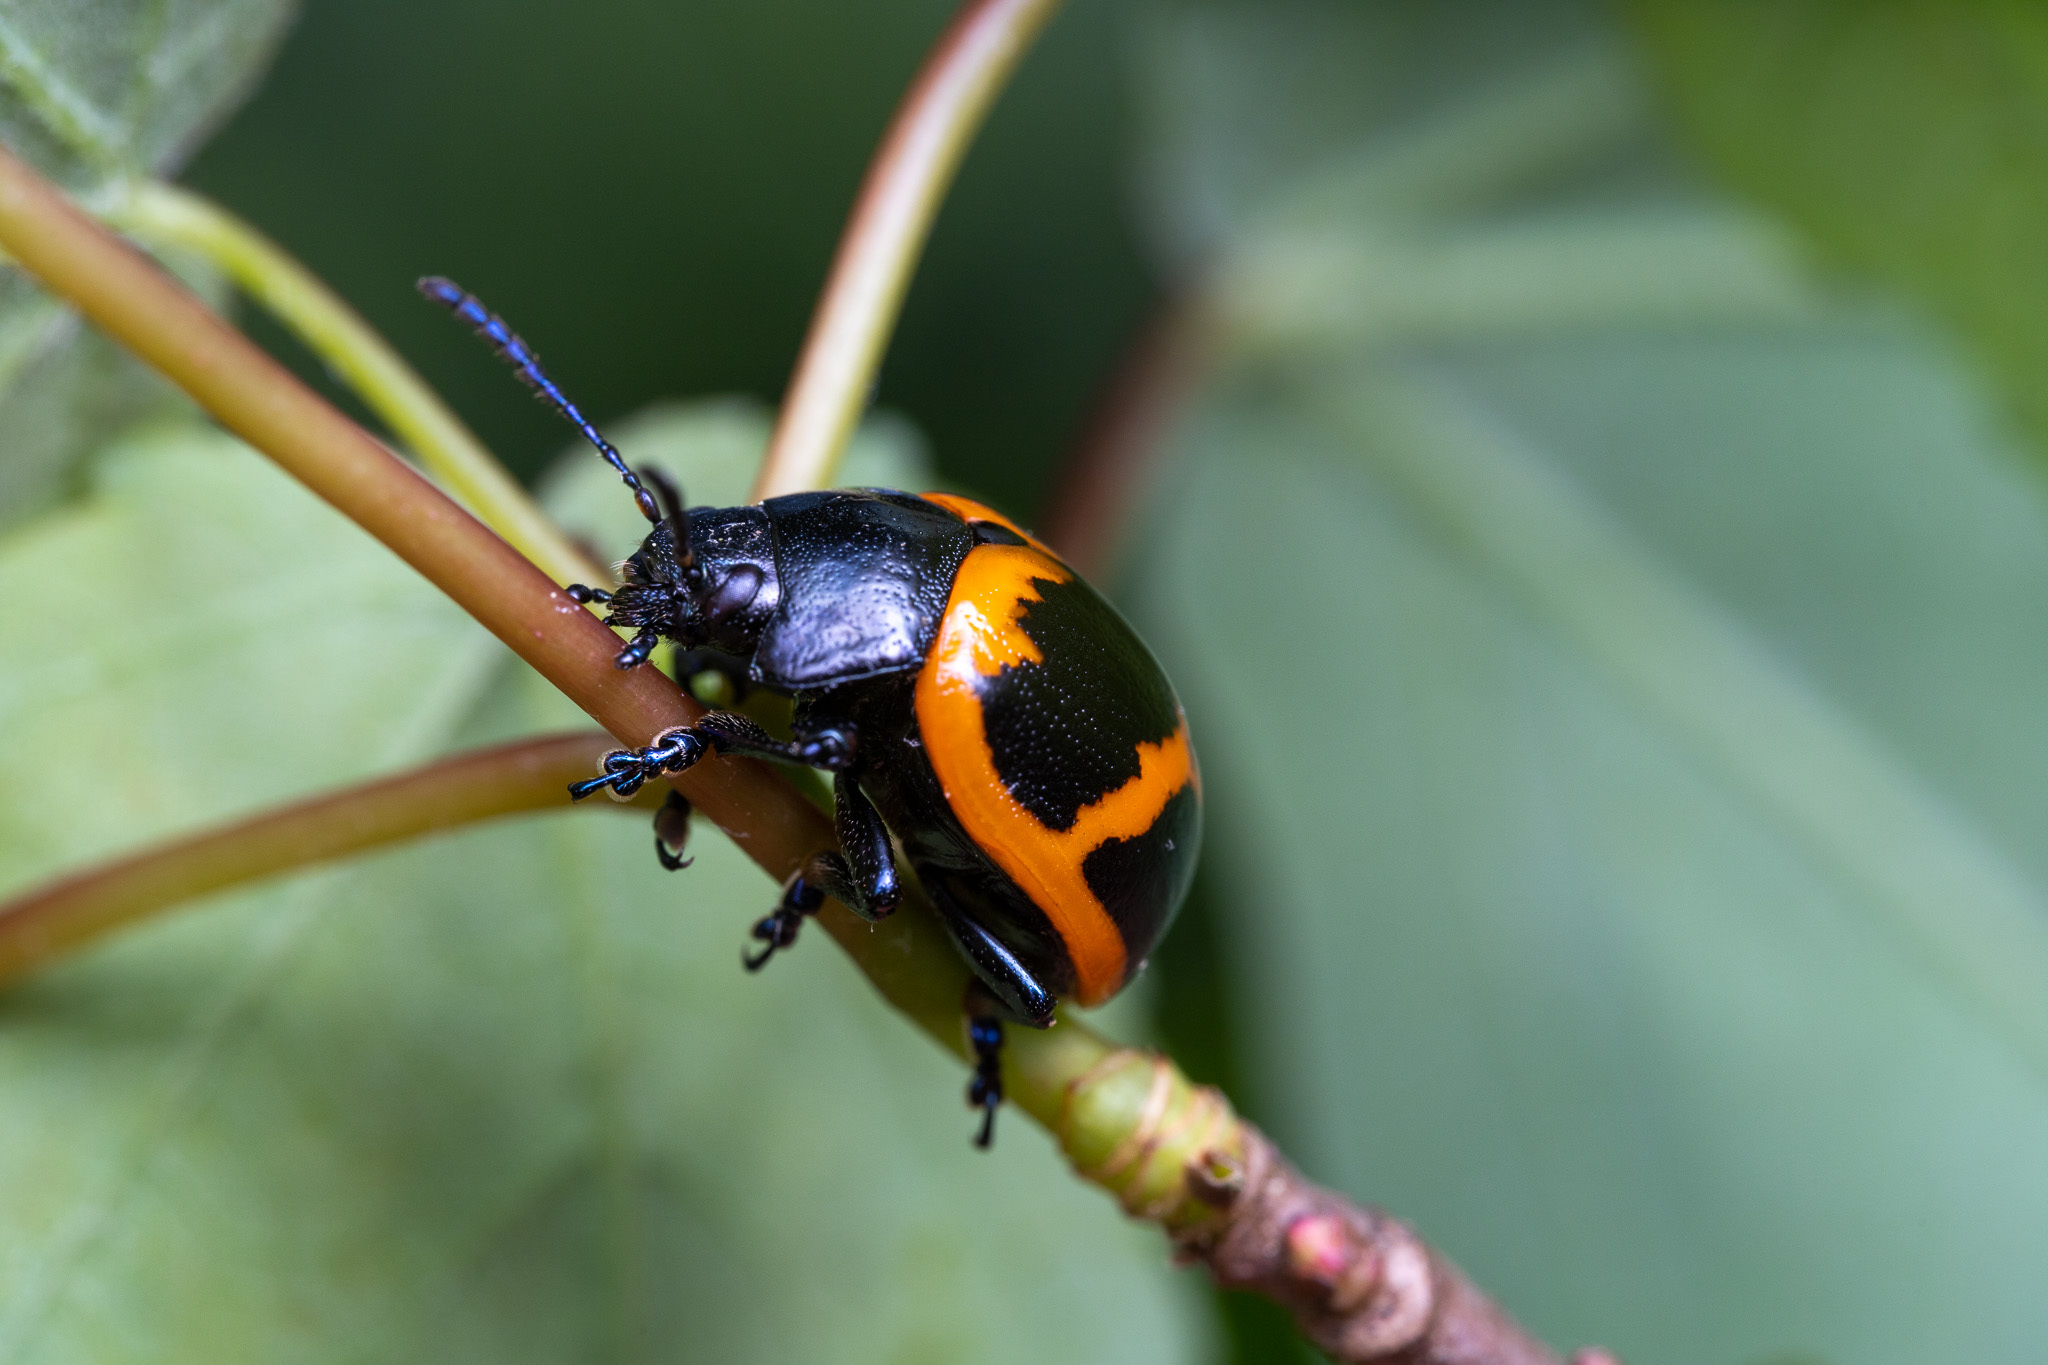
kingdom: Animalia
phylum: Arthropoda
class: Insecta
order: Coleoptera
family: Chrysomelidae
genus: Labidomera
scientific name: Labidomera clivicollis
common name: Swamp milkweed leaf beetle
